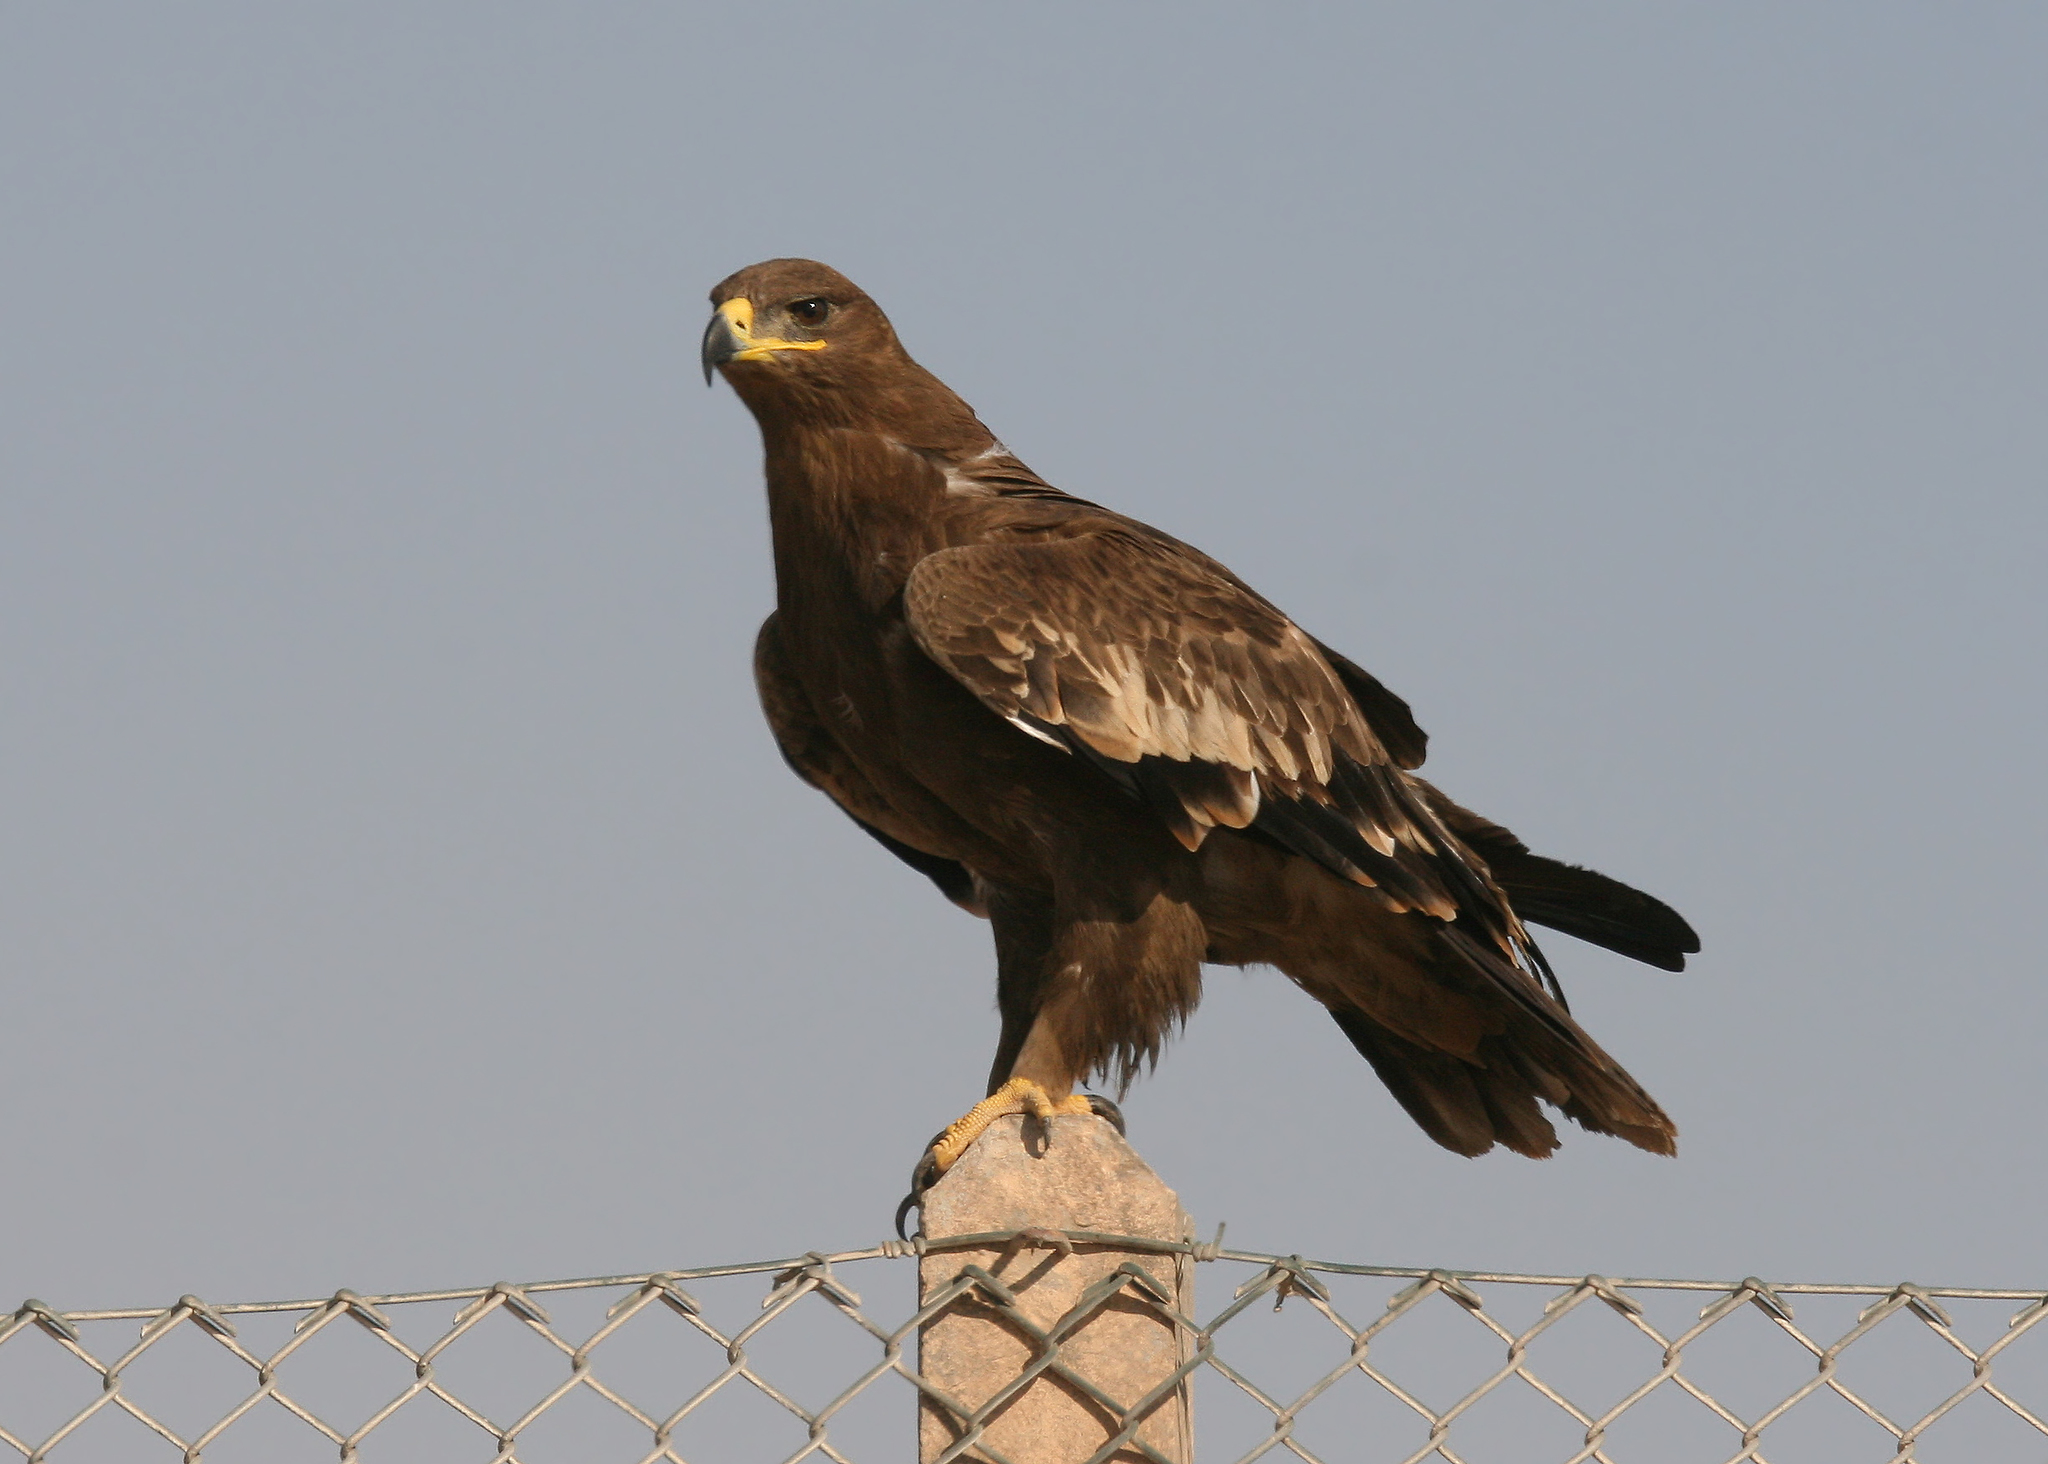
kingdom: Animalia
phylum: Chordata
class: Aves
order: Accipitriformes
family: Accipitridae
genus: Aquila
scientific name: Aquila nipalensis
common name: Steppe eagle
